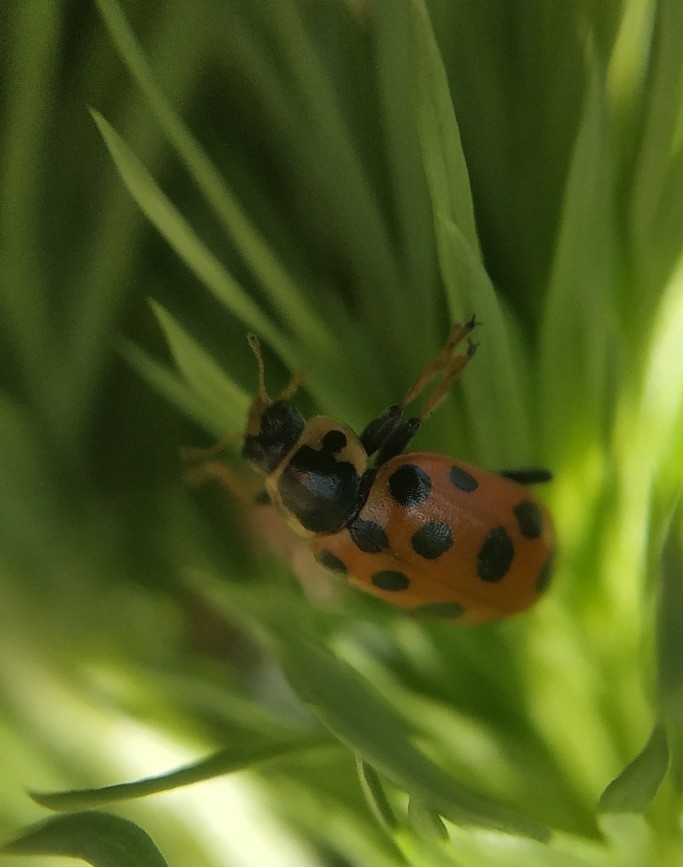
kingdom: Animalia
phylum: Arthropoda
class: Insecta
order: Coleoptera
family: Coccinellidae
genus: Hippodamia
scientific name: Hippodamia tredecimpunctata
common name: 13-spot ladybird
